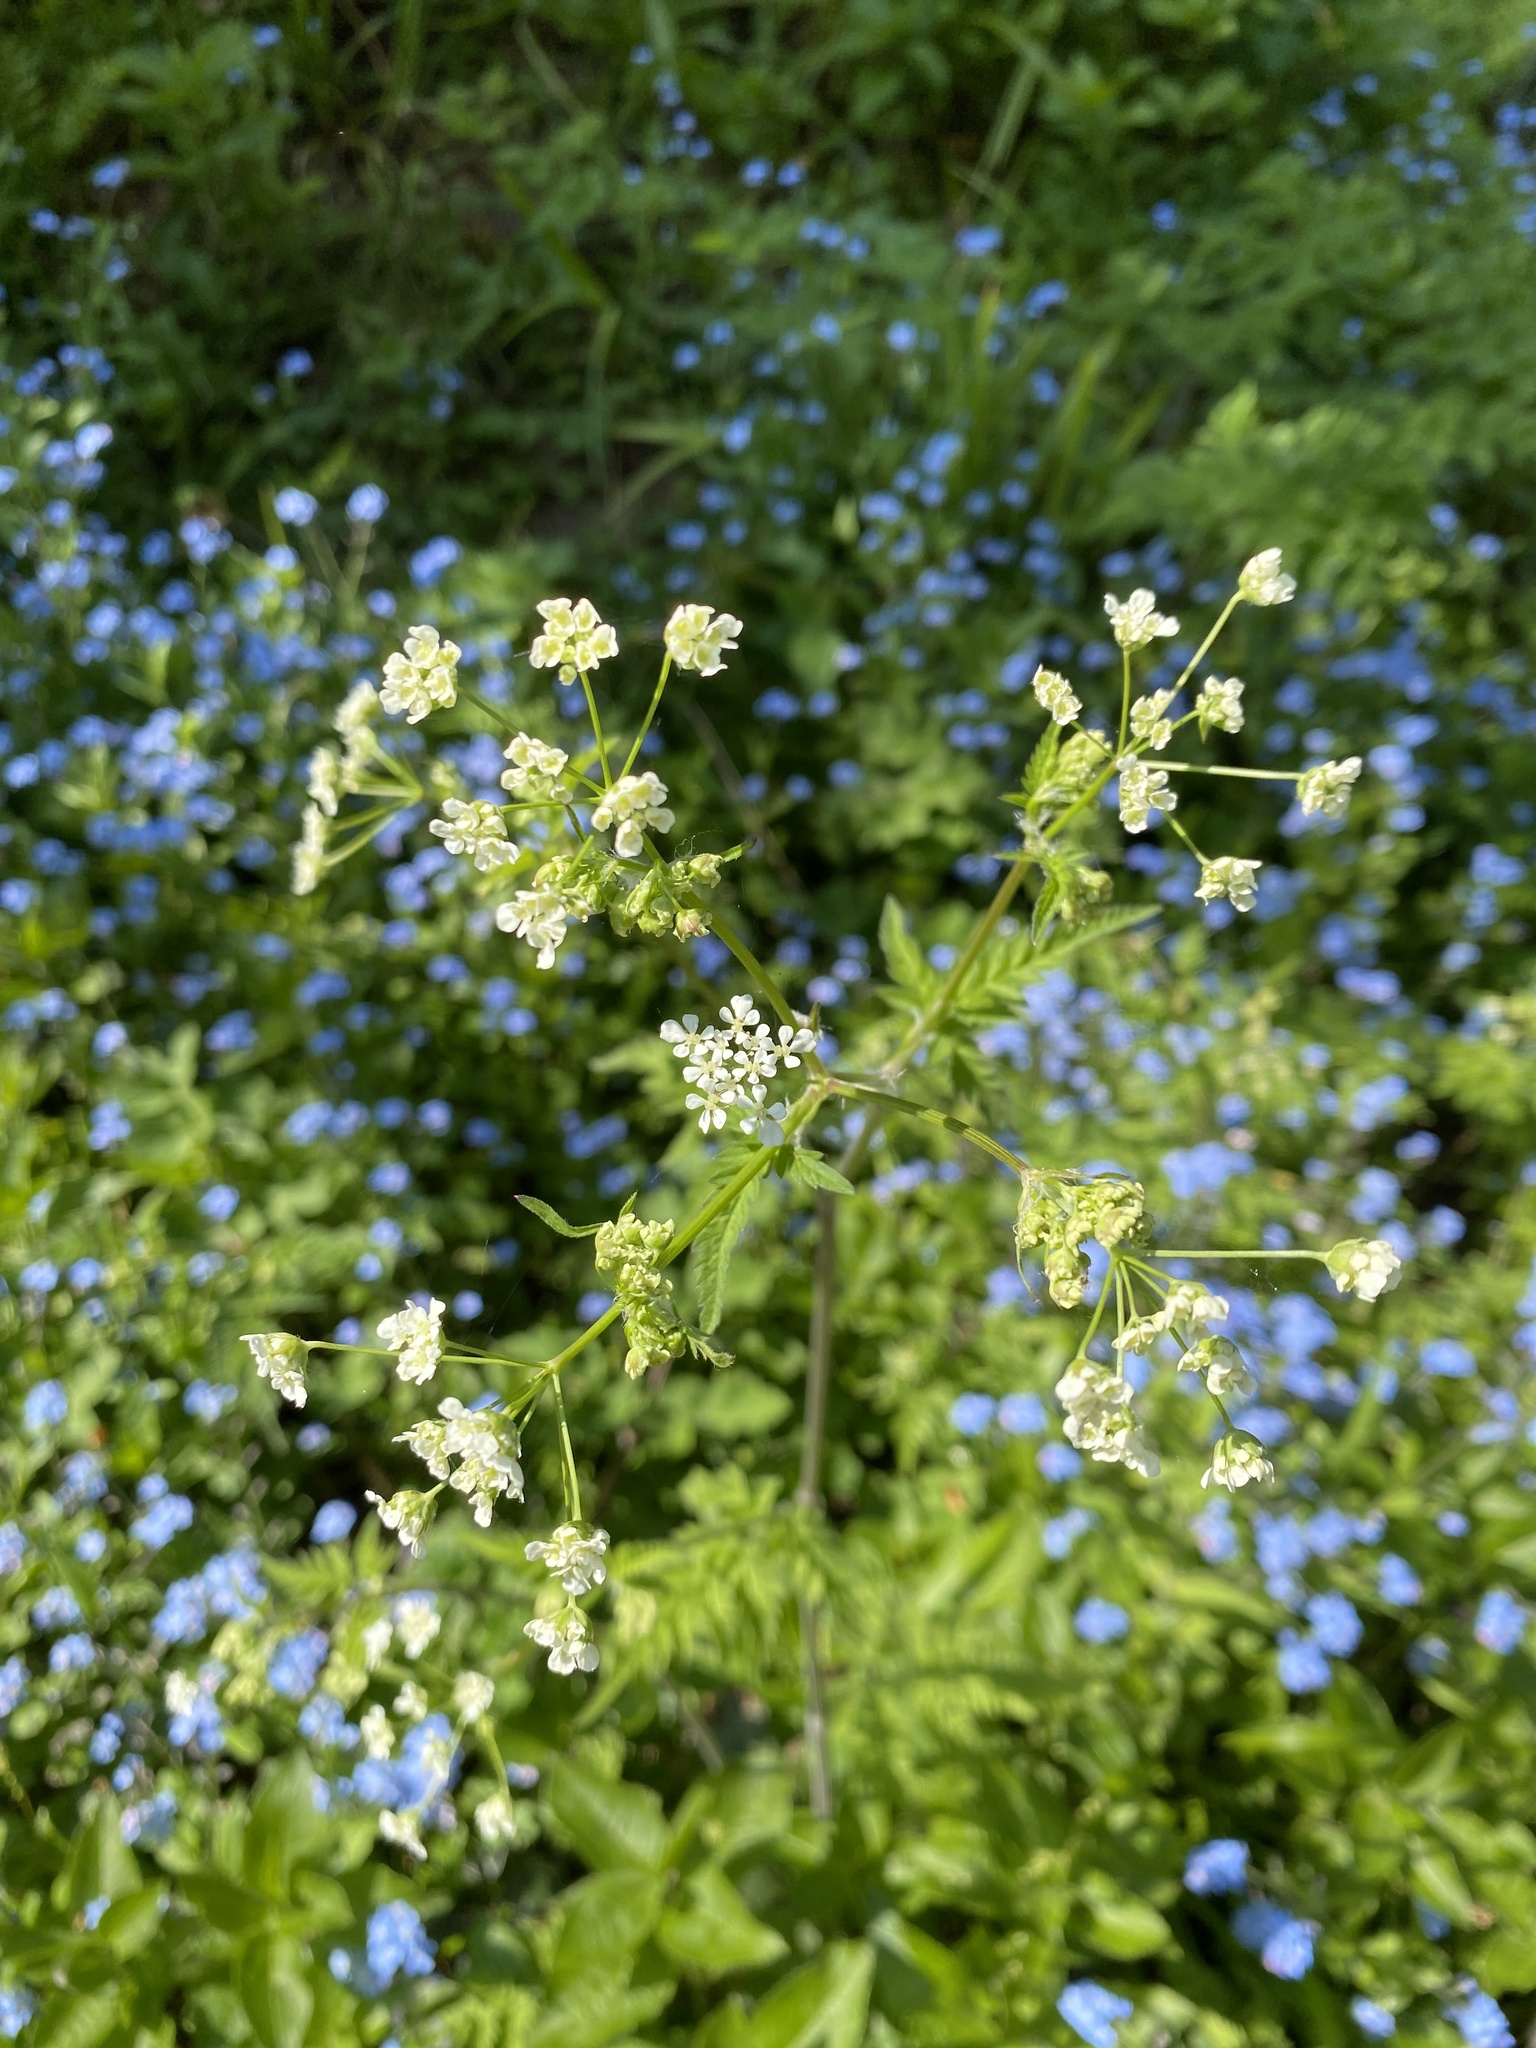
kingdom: Plantae
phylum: Tracheophyta
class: Magnoliopsida
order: Apiales
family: Apiaceae
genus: Anthriscus
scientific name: Anthriscus sylvestris
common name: Cow parsley
